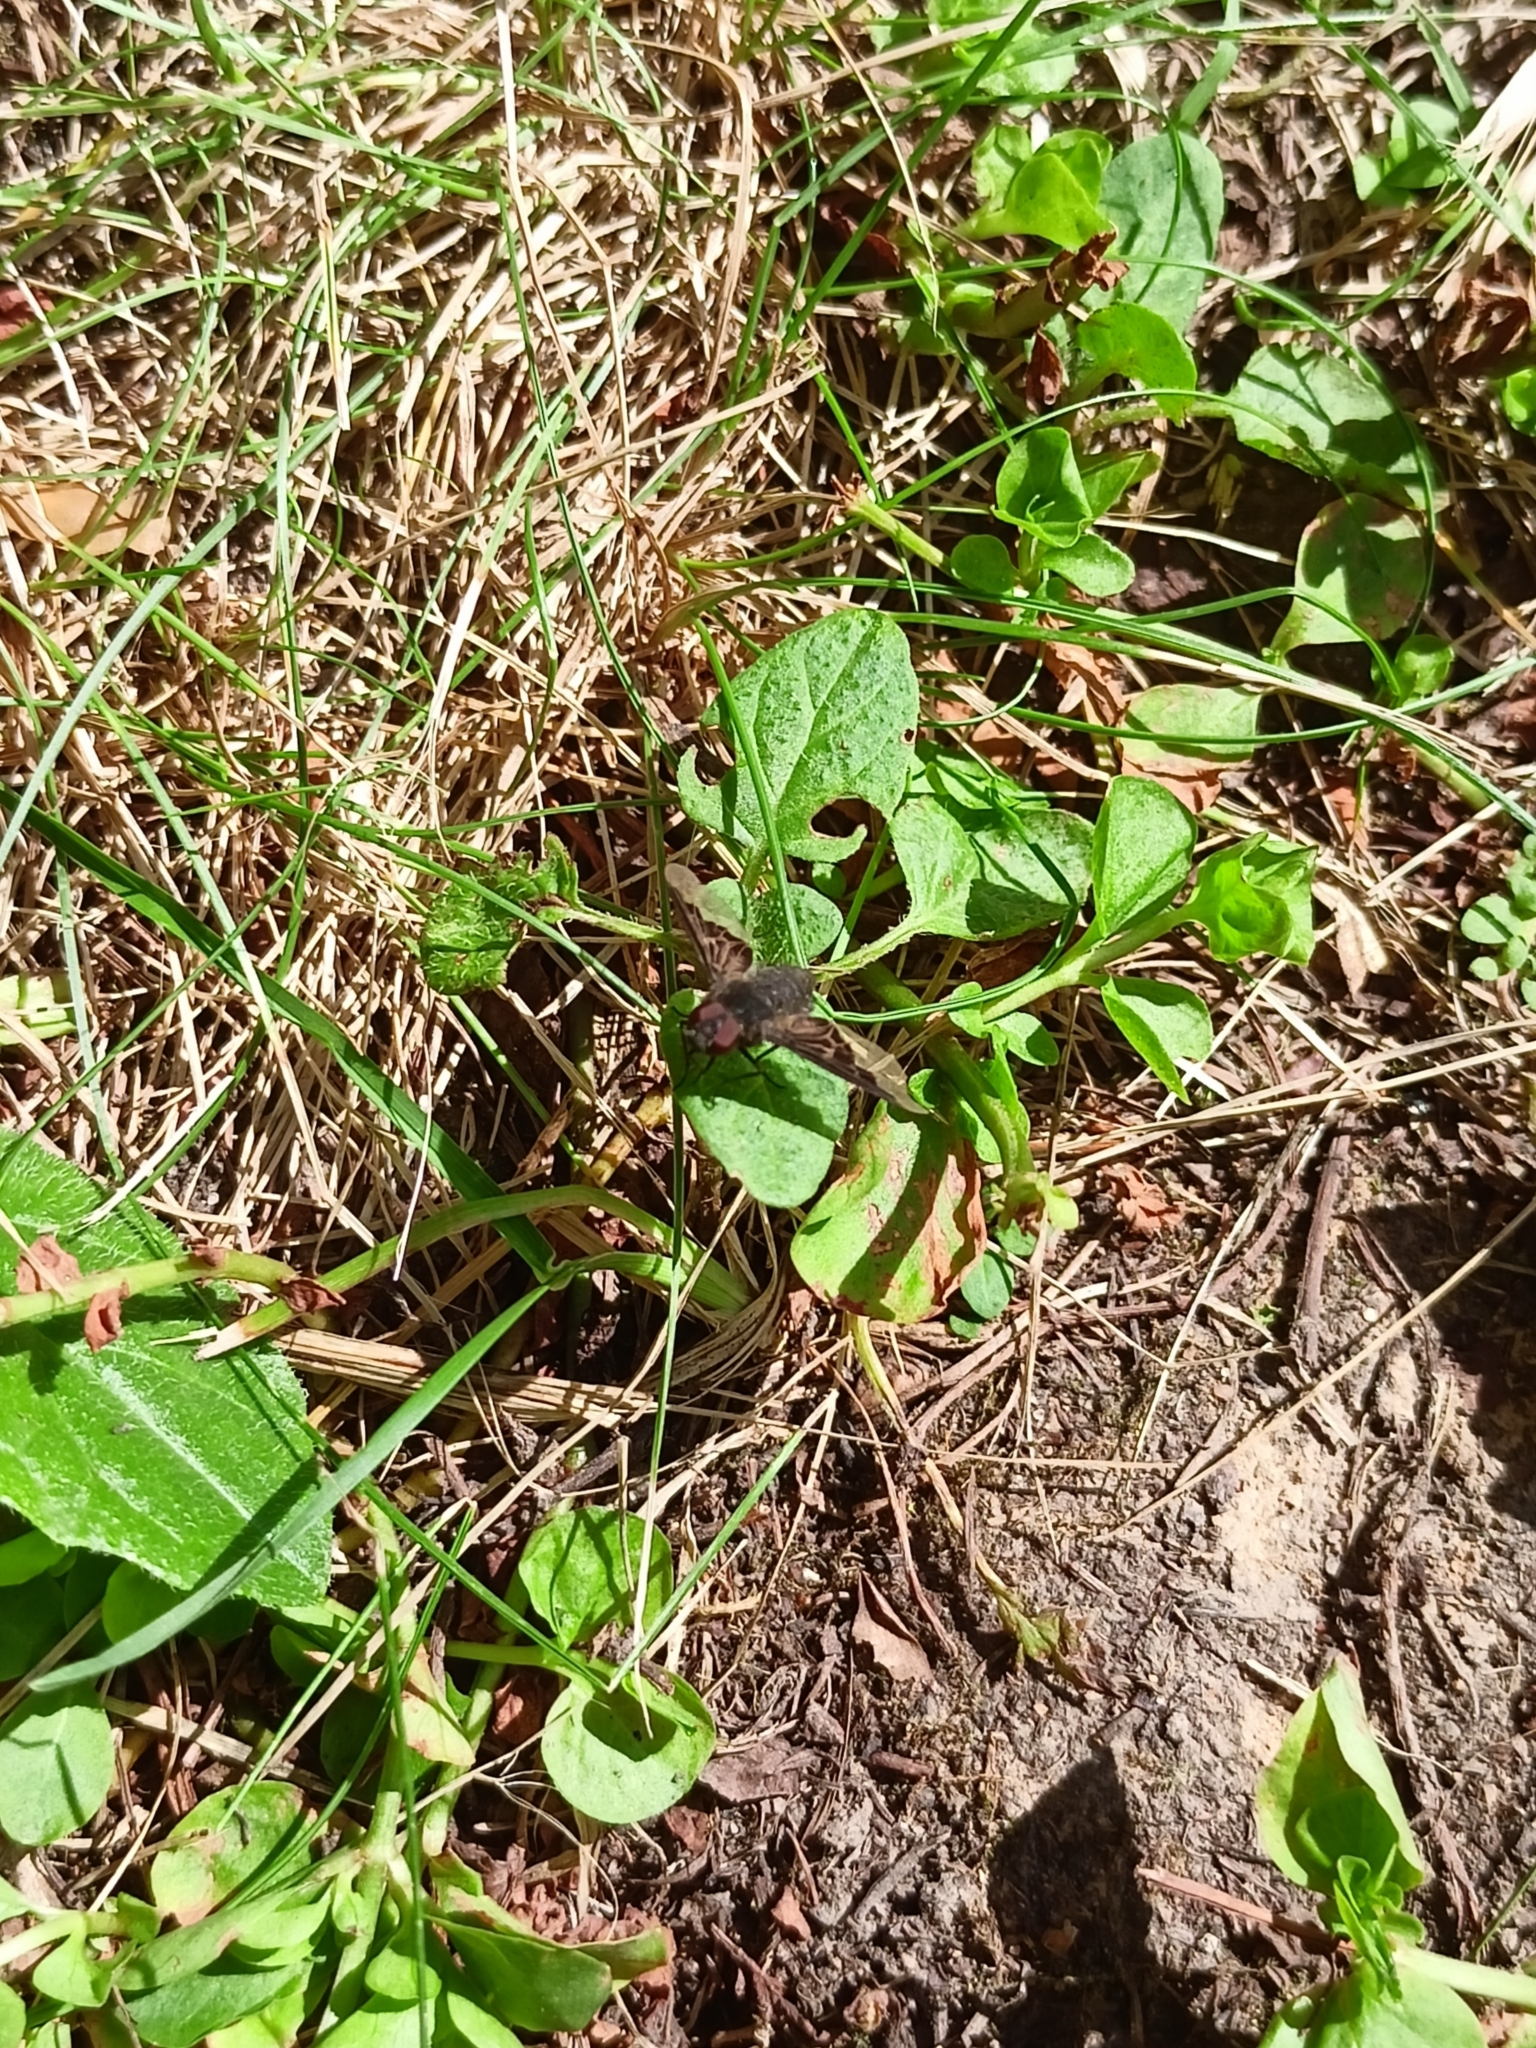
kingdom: Animalia
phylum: Arthropoda
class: Insecta
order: Diptera
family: Bombyliidae
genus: Hemipenthes
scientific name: Hemipenthes morio
